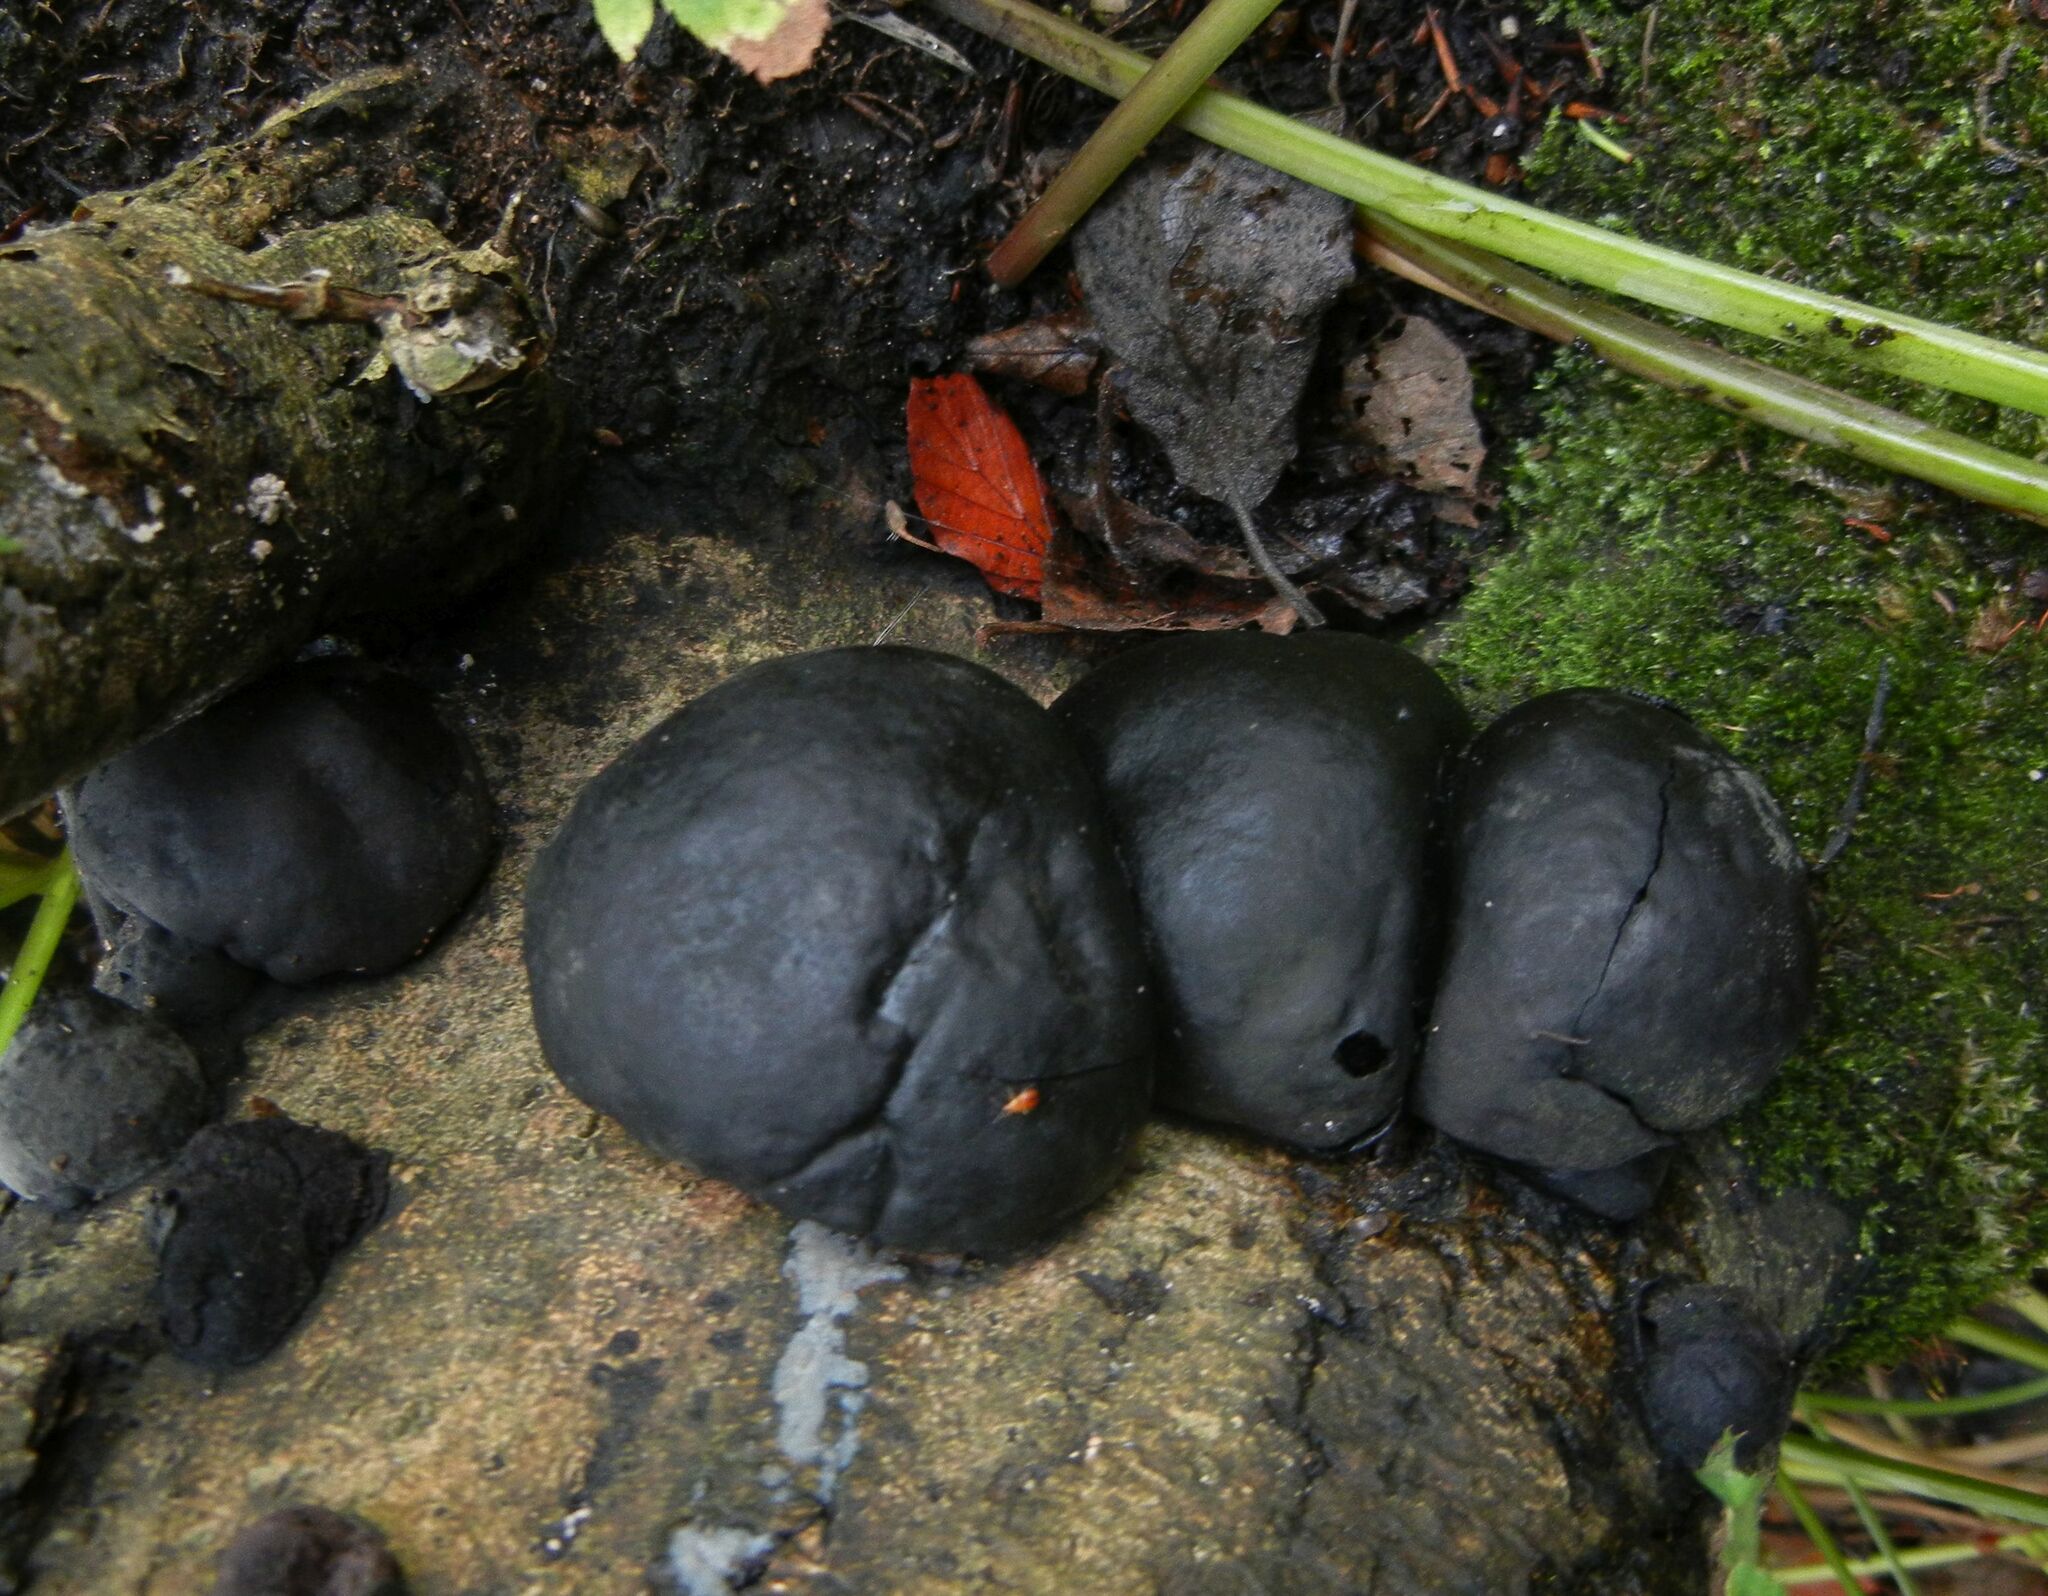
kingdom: Fungi
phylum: Ascomycota
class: Sordariomycetes
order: Xylariales
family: Hypoxylaceae
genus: Daldinia
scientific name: Daldinia concentrica
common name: Cramp balls
